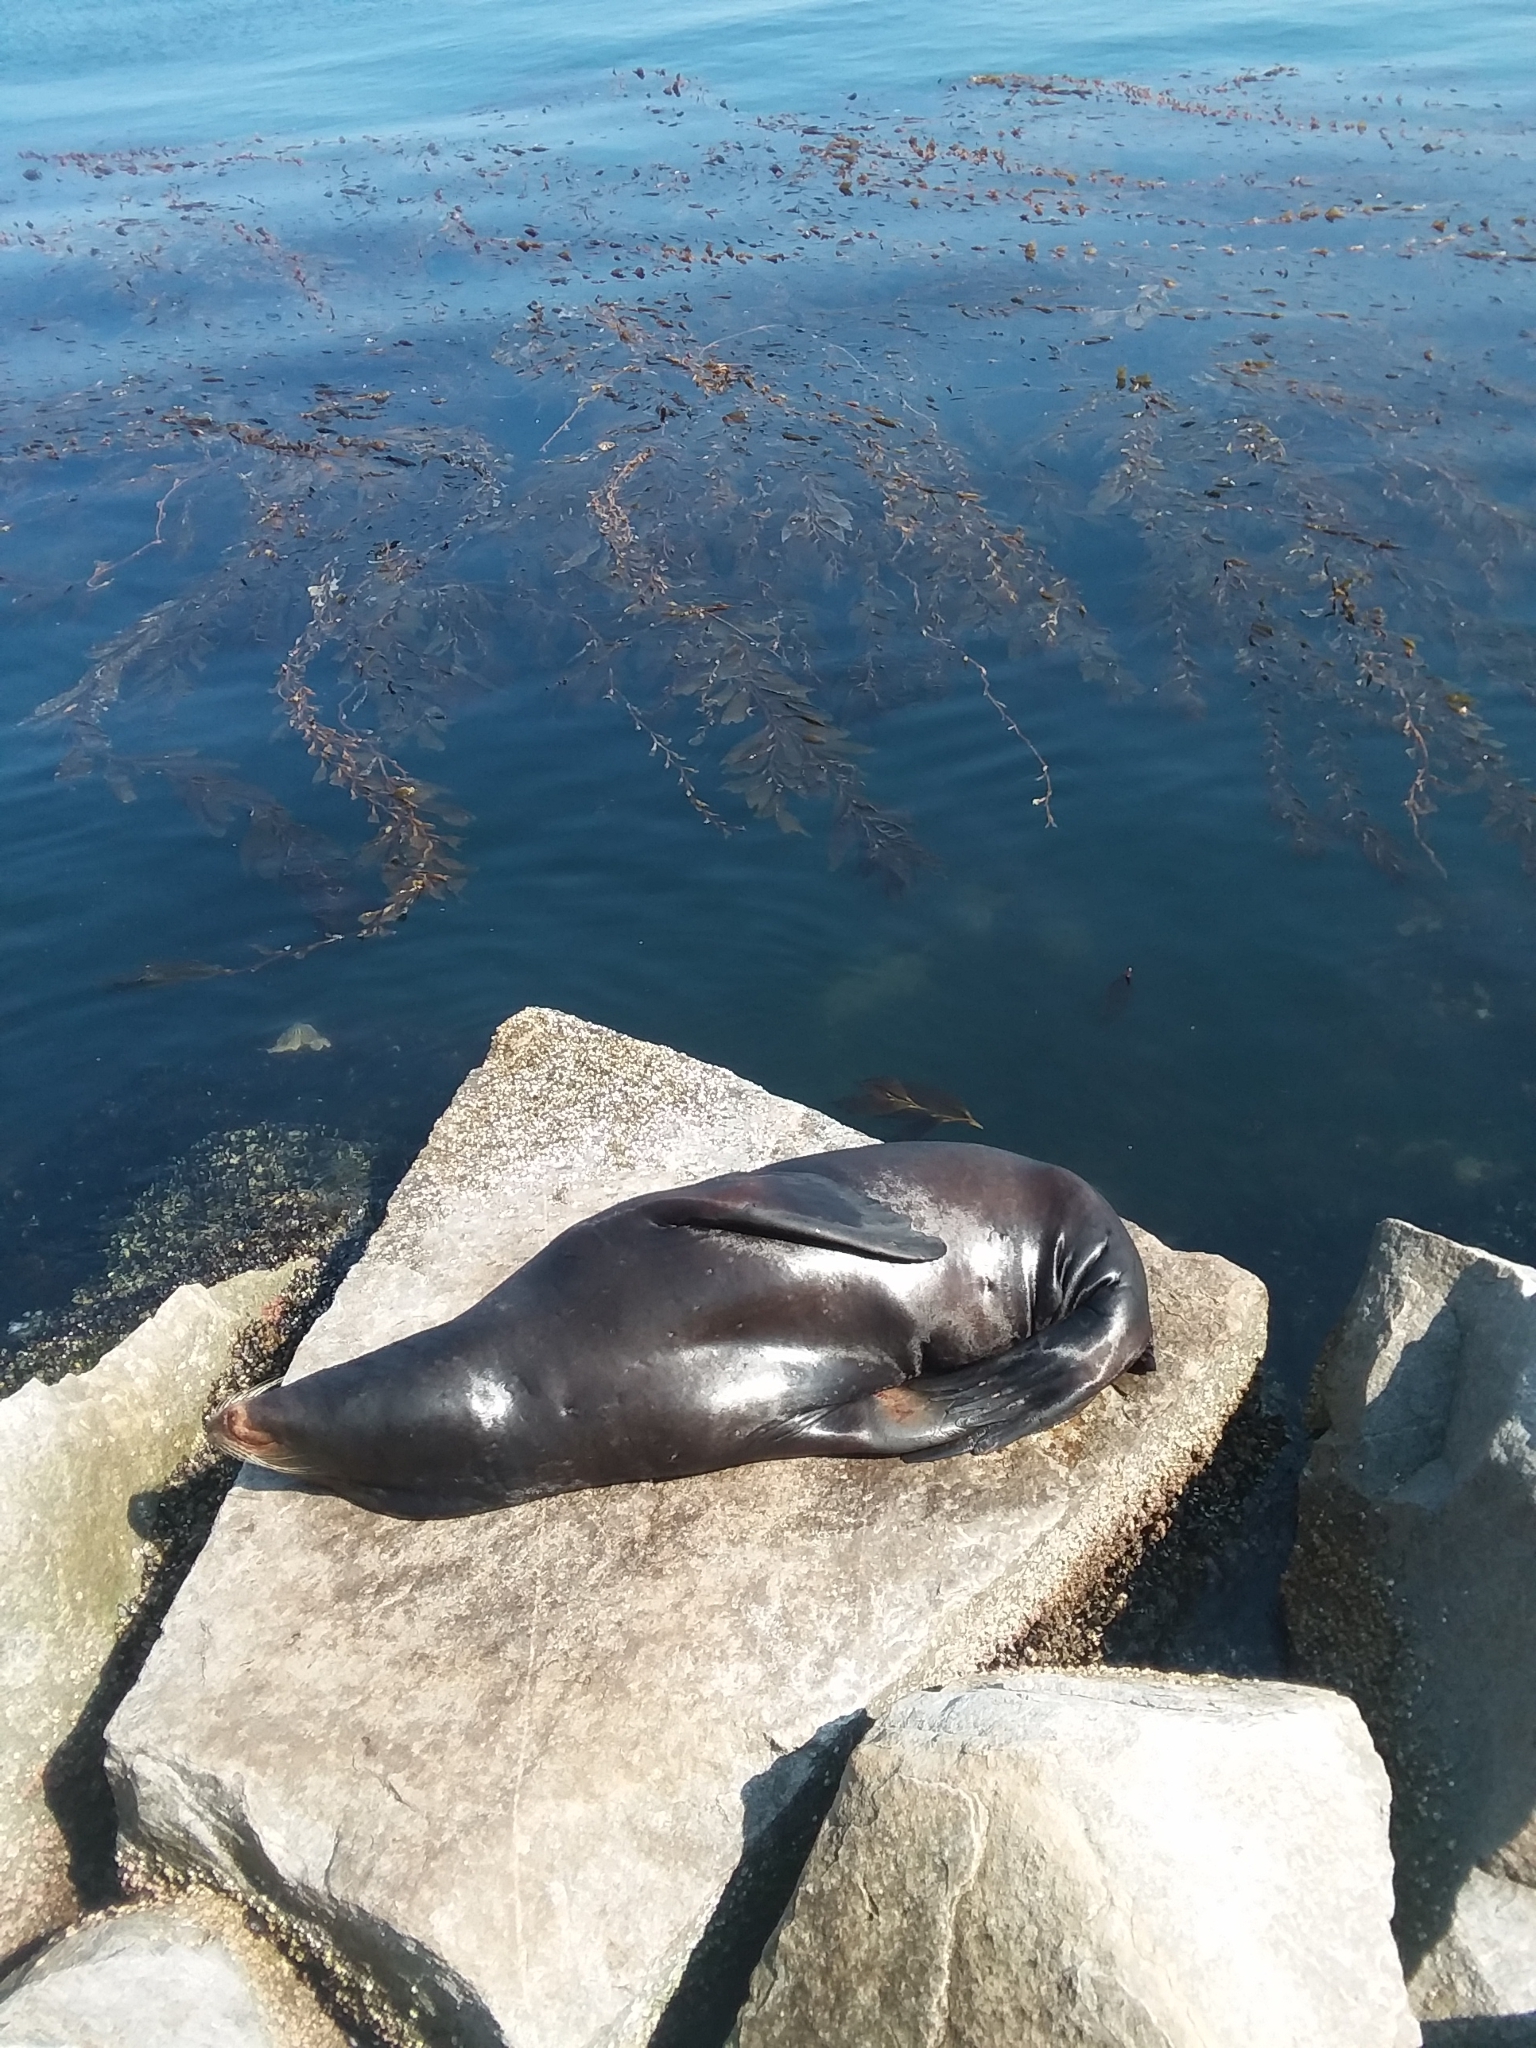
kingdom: Animalia
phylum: Chordata
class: Mammalia
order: Carnivora
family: Otariidae
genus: Zalophus
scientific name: Zalophus californianus
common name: California sea lion
